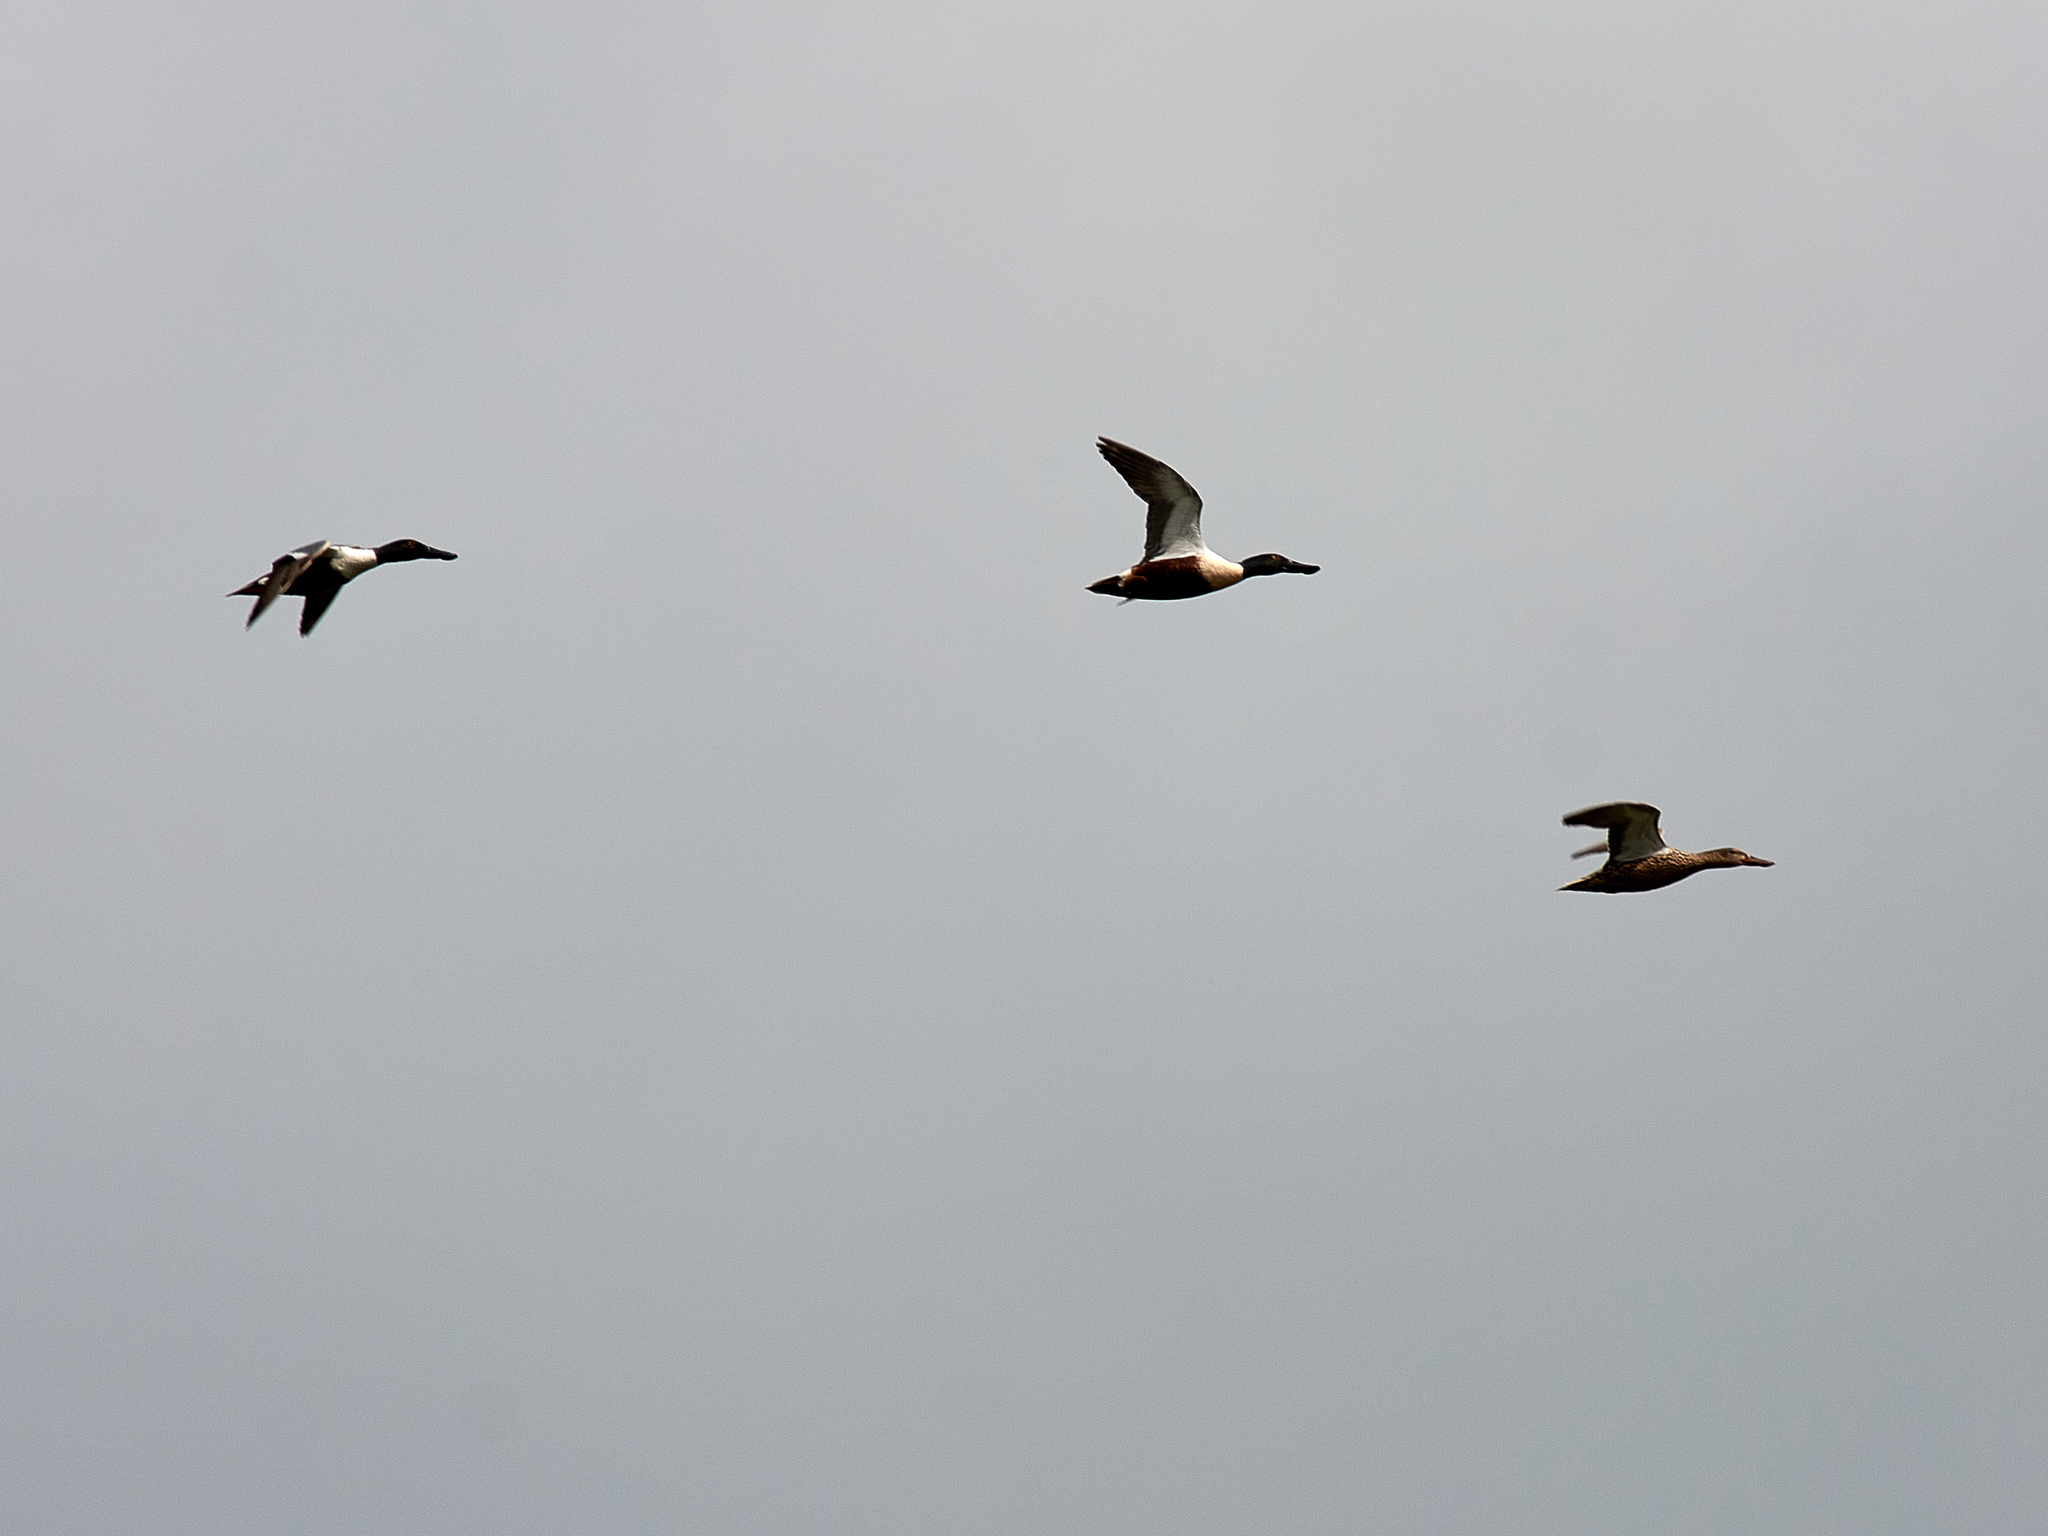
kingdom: Animalia
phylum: Chordata
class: Aves
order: Anseriformes
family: Anatidae
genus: Spatula
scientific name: Spatula clypeata
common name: Northern shoveler
